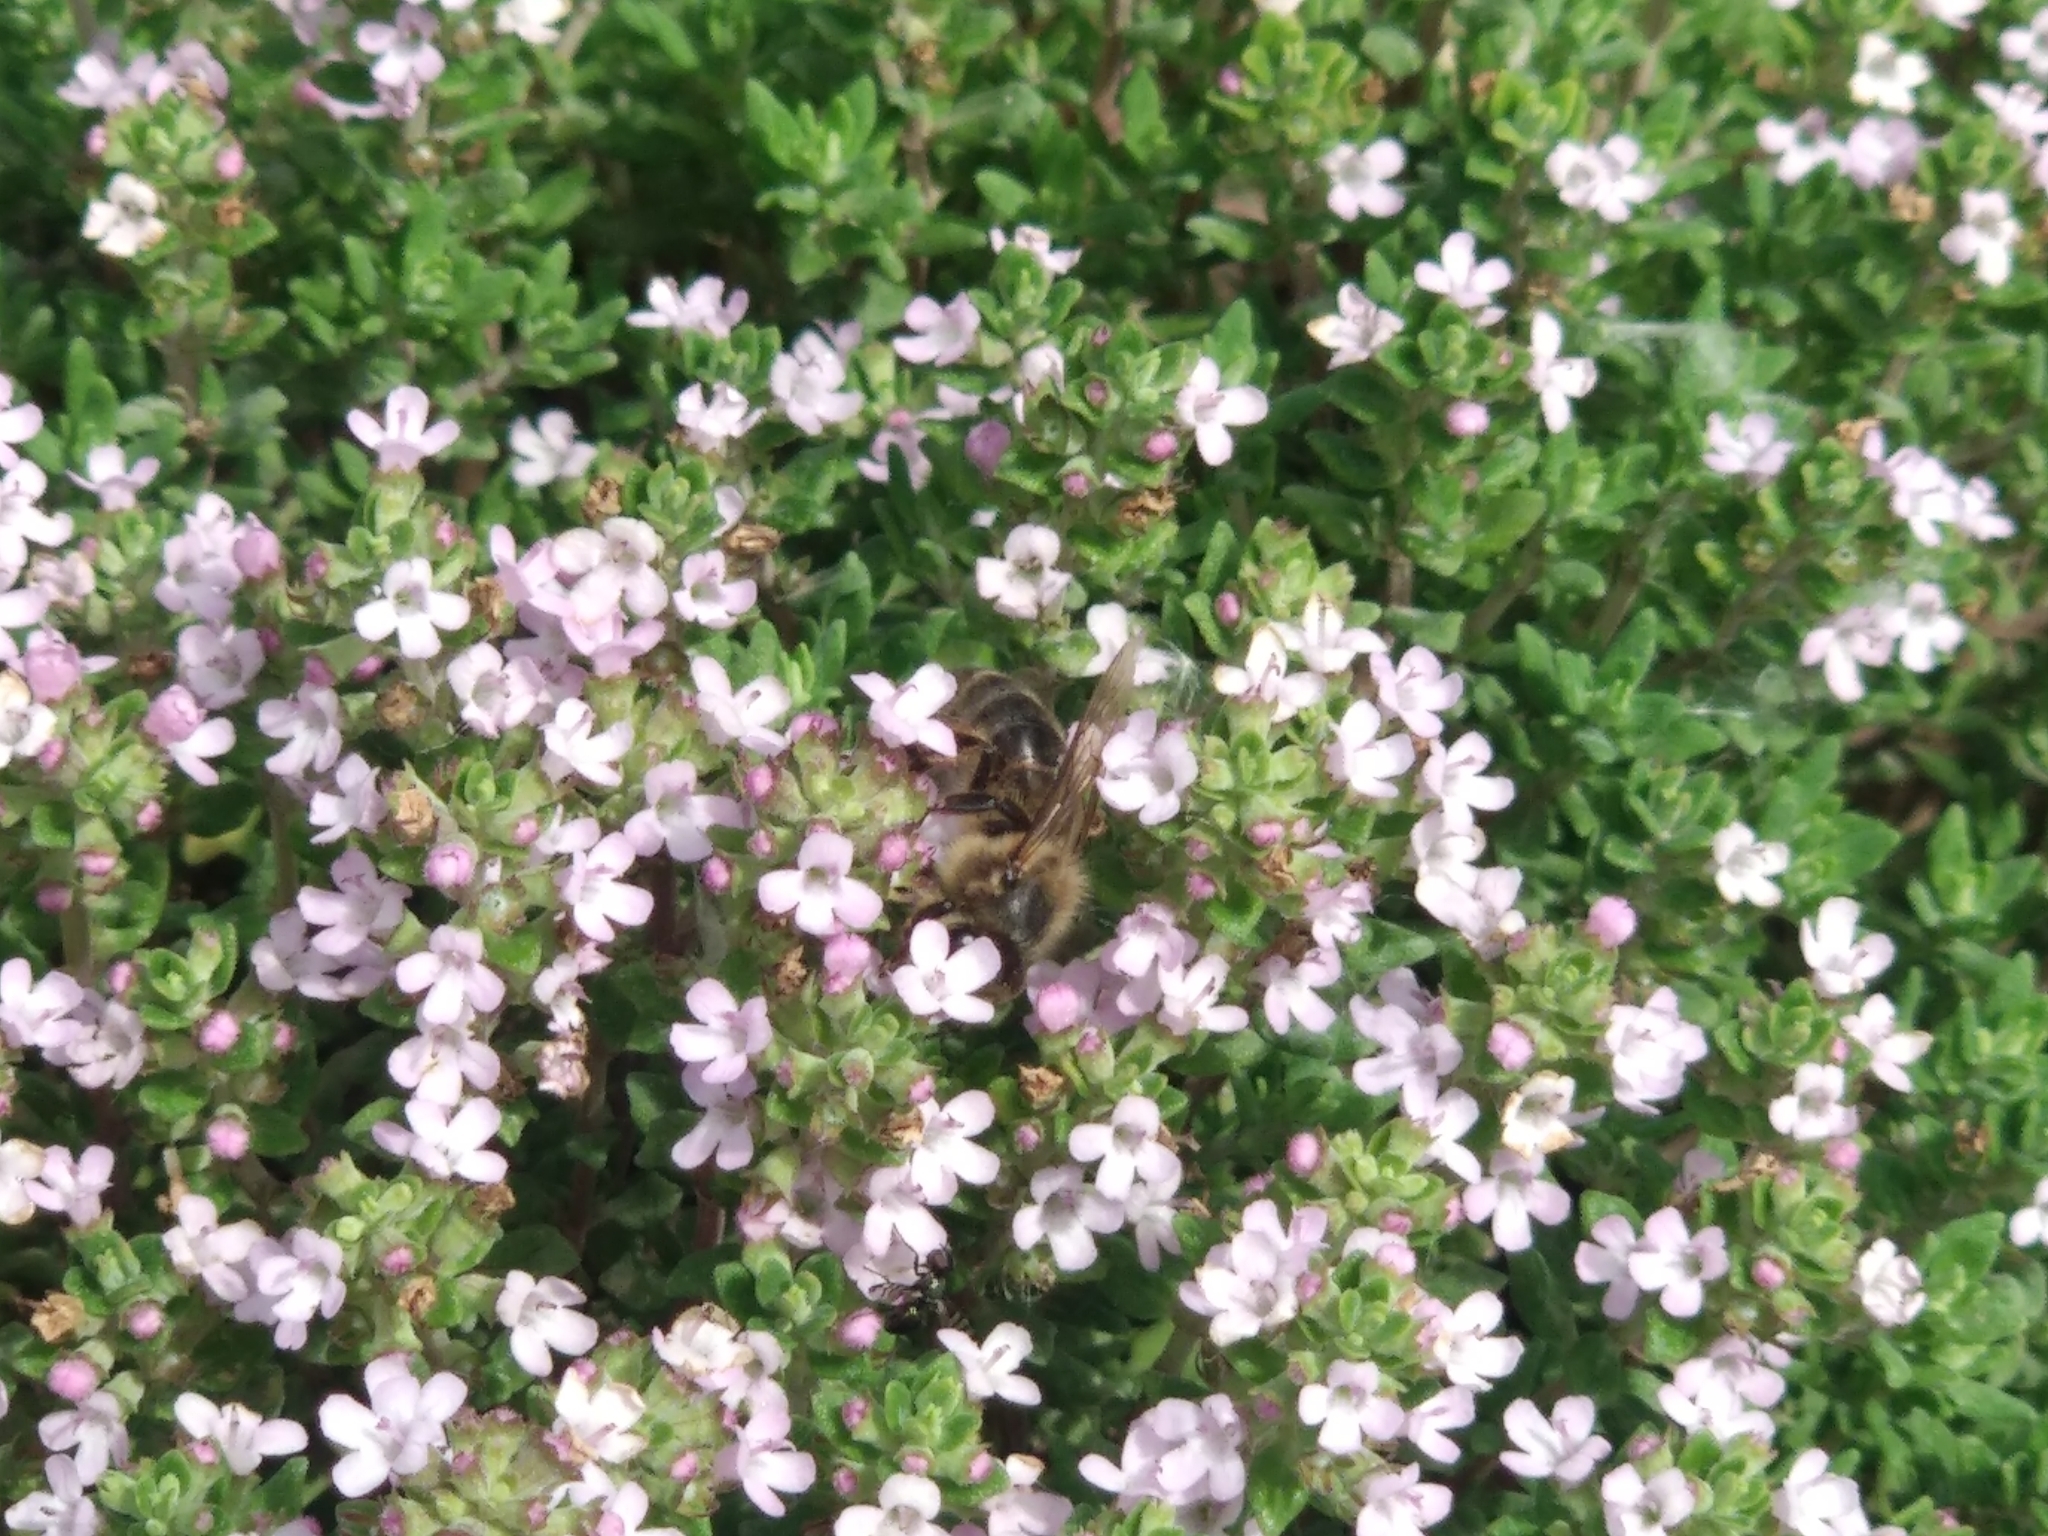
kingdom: Animalia
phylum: Arthropoda
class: Insecta
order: Hymenoptera
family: Apidae
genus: Apis
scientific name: Apis mellifera
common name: Honey bee
